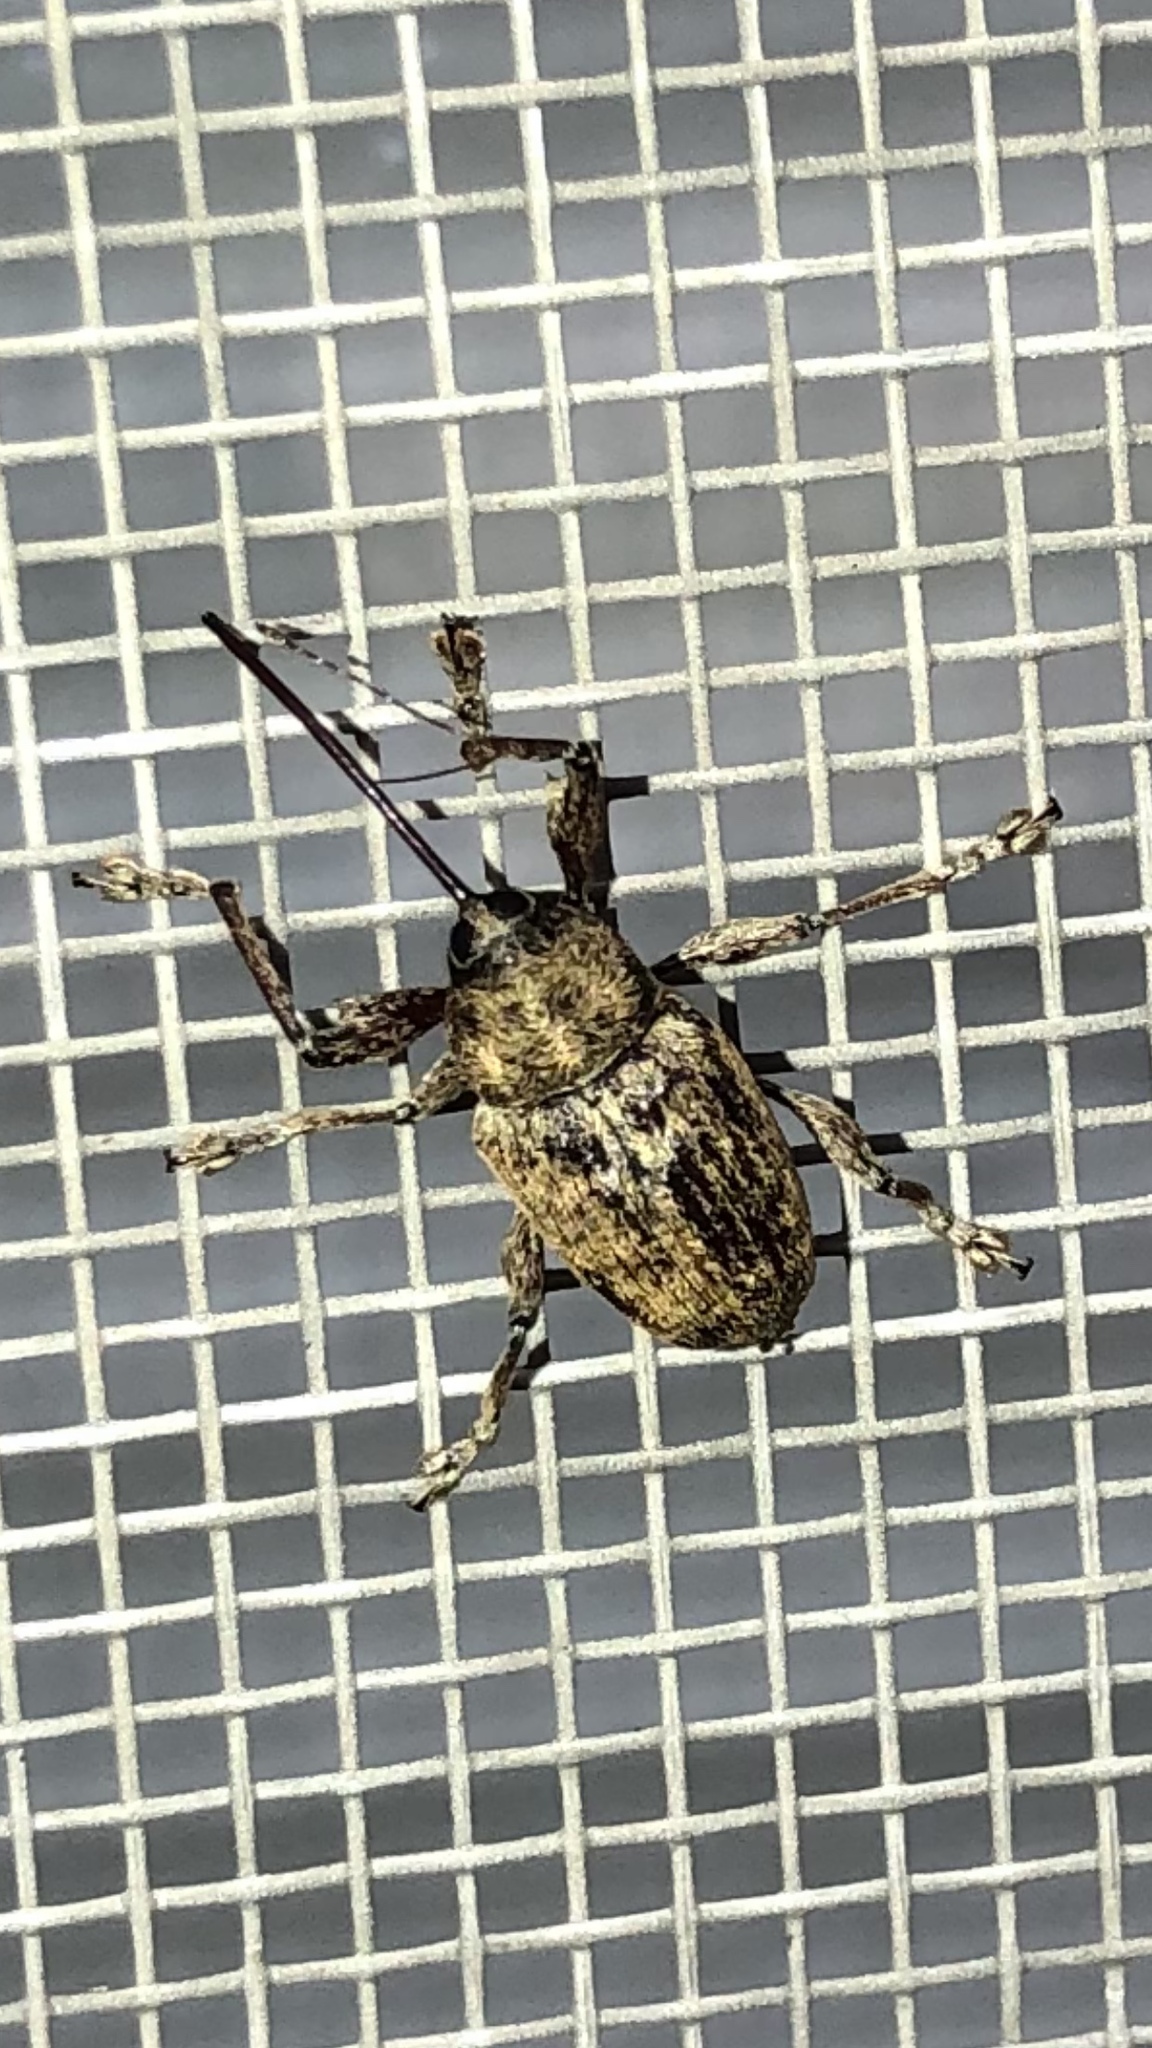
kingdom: Animalia
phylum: Arthropoda
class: Insecta
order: Coleoptera
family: Curculionidae
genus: Curculio
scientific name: Curculio
